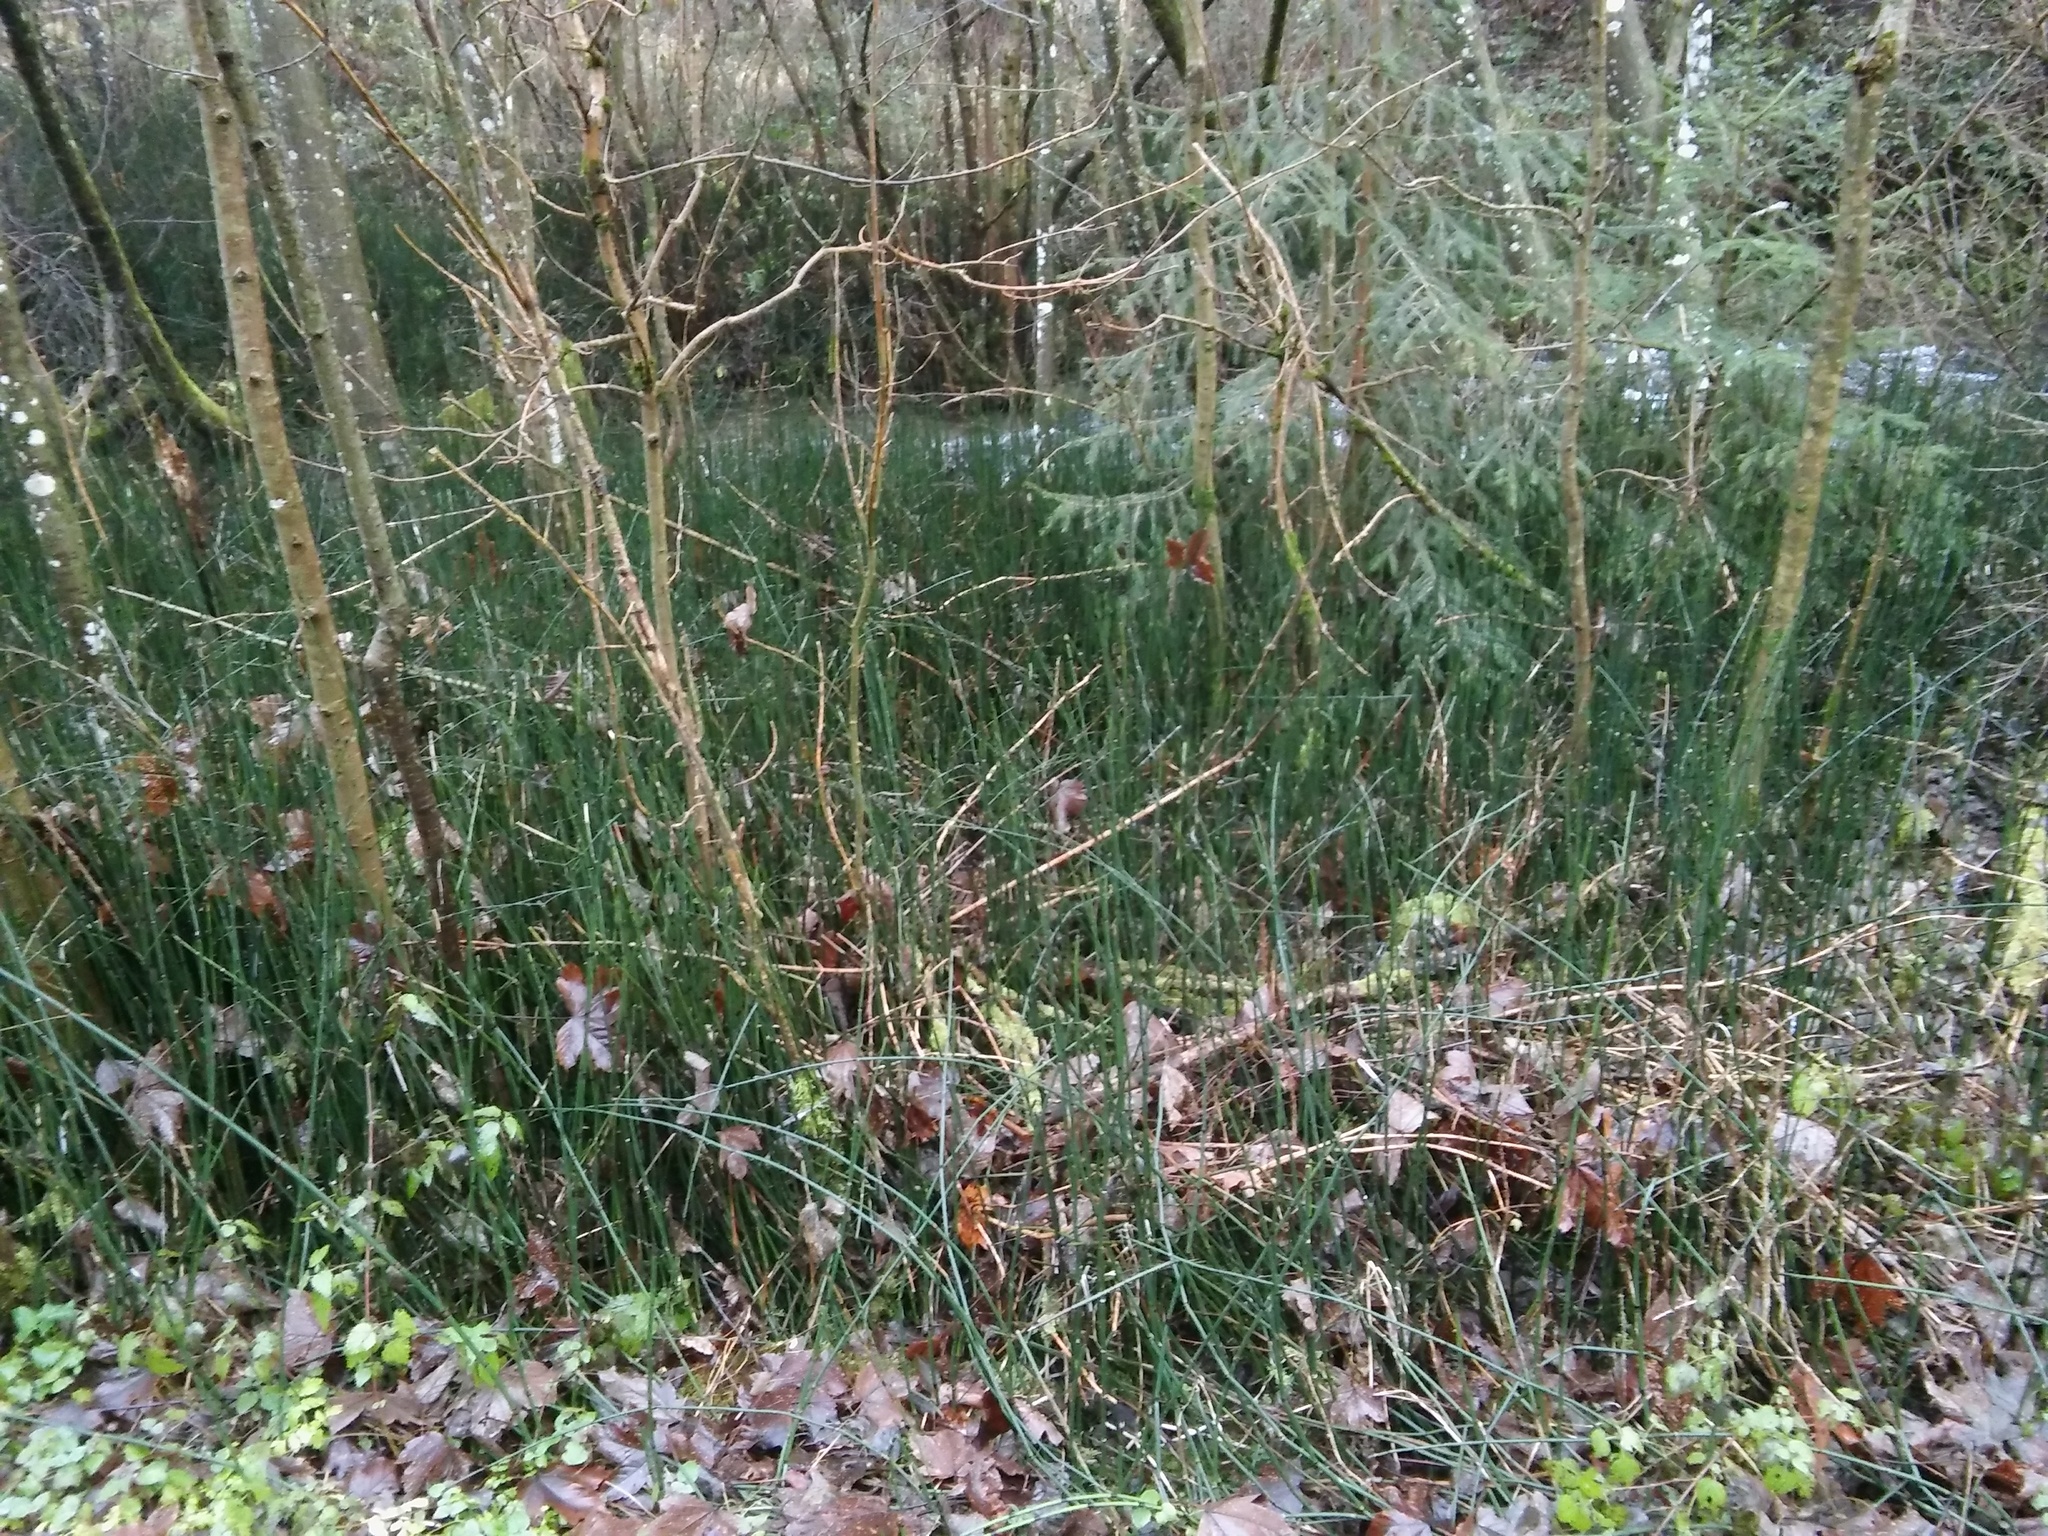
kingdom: Plantae
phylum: Tracheophyta
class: Polypodiopsida
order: Equisetales
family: Equisetaceae
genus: Equisetum
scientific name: Equisetum hyemale
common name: Rough horsetail
